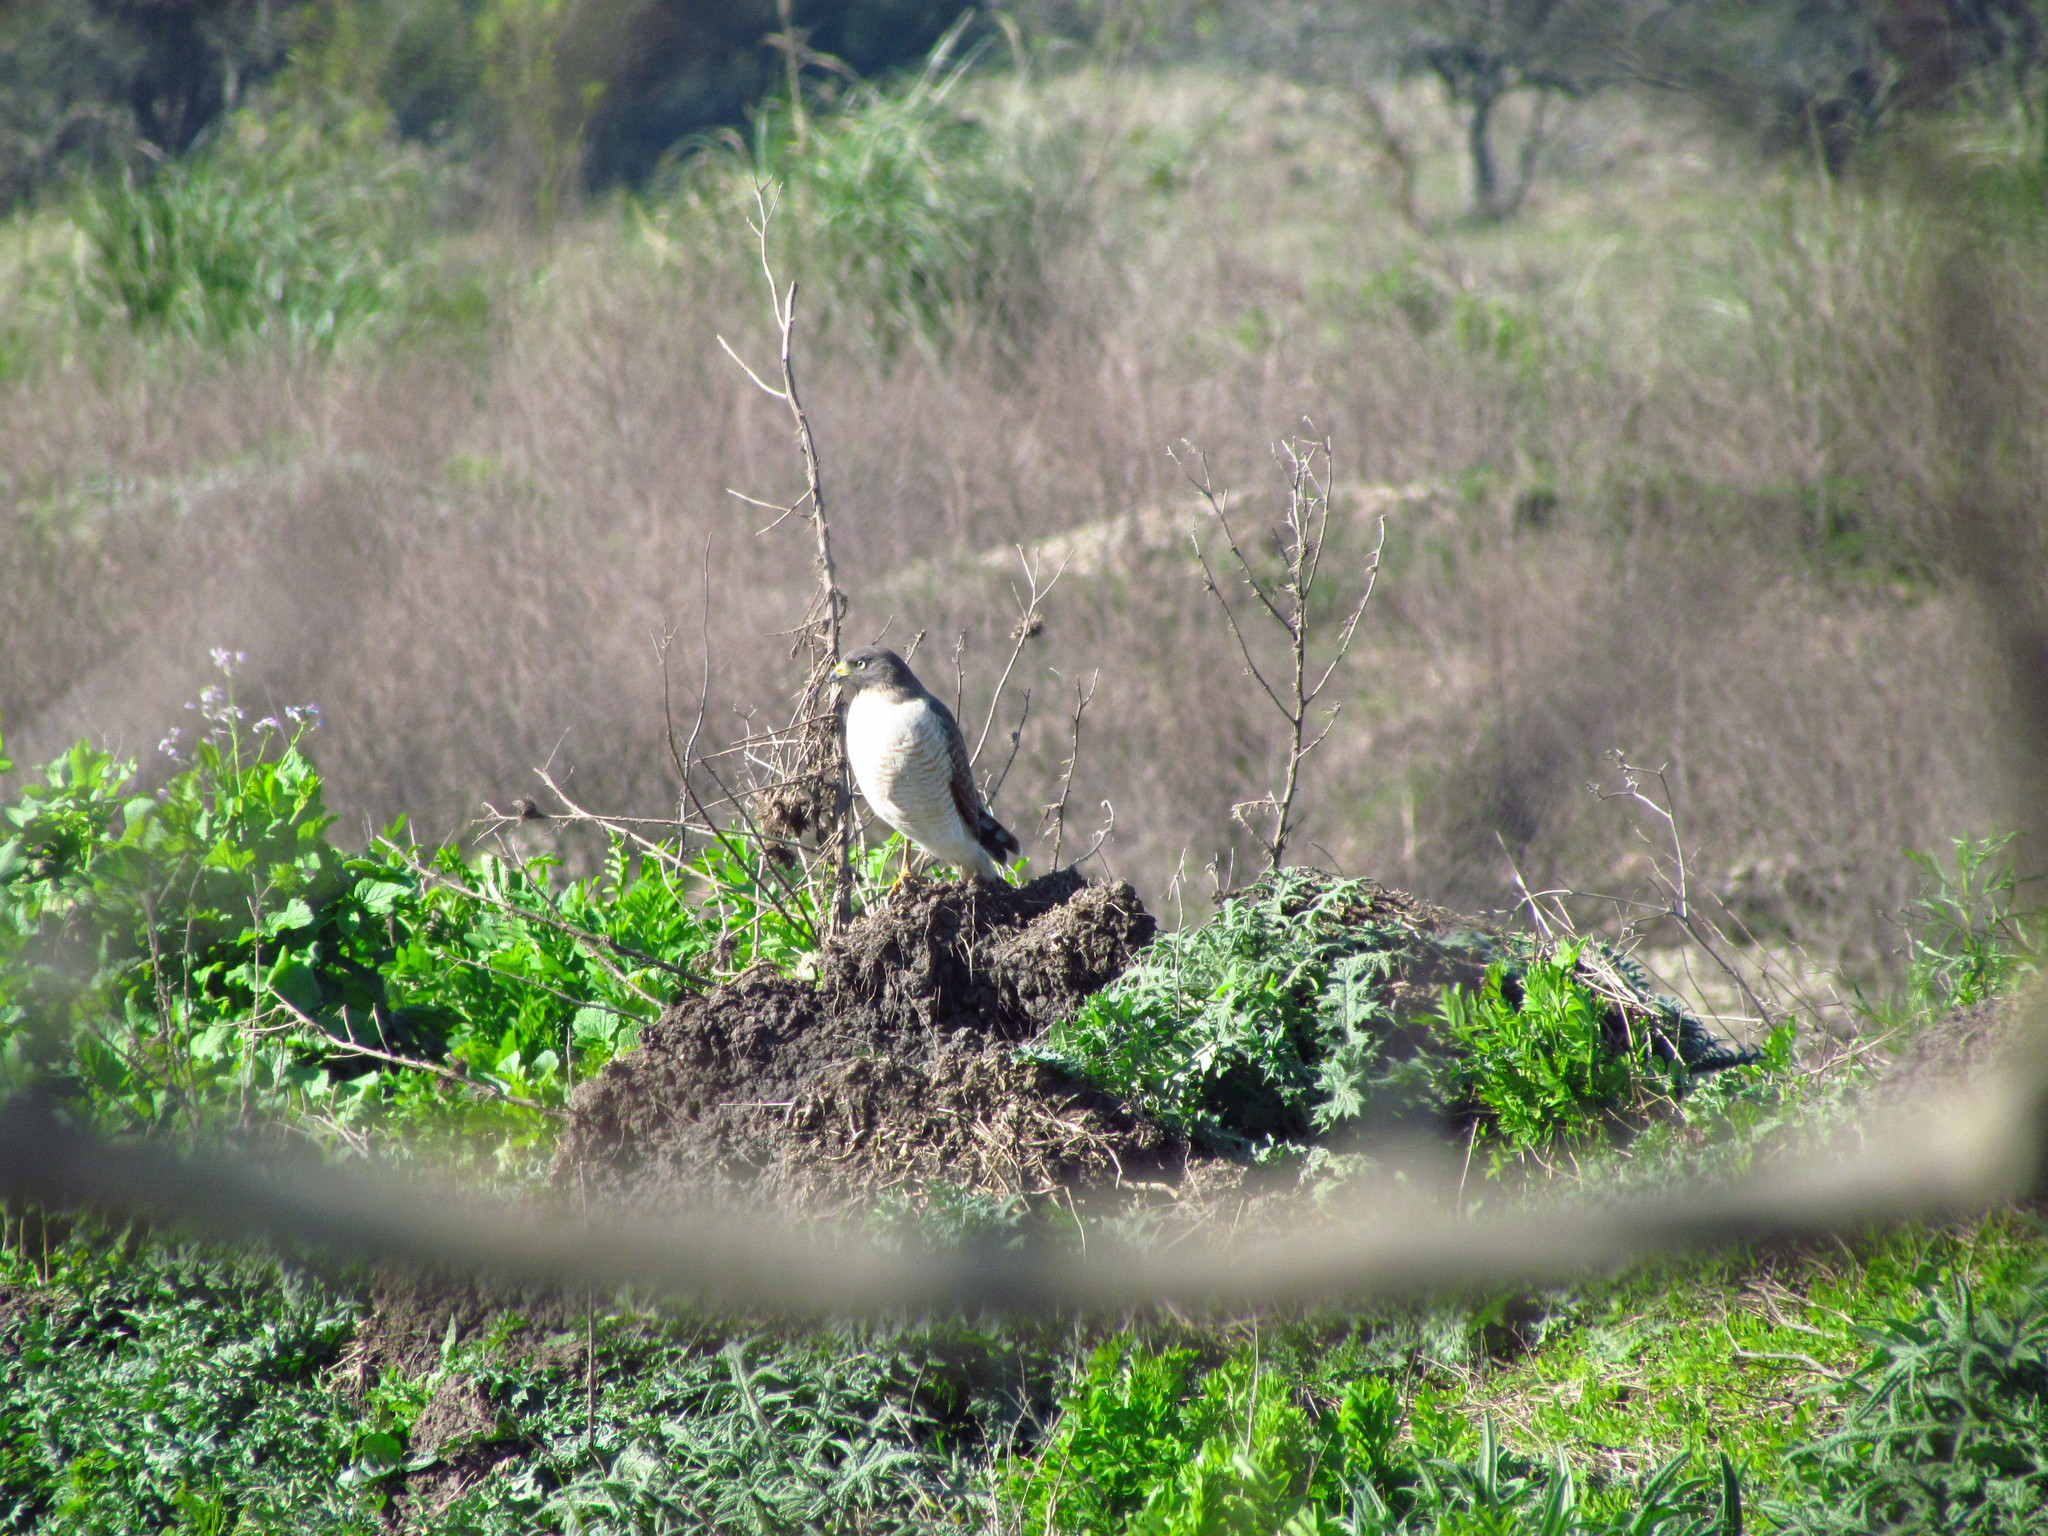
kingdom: Animalia
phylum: Chordata
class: Aves
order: Accipitriformes
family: Accipitridae
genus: Rupornis
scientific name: Rupornis magnirostris
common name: Roadside hawk
